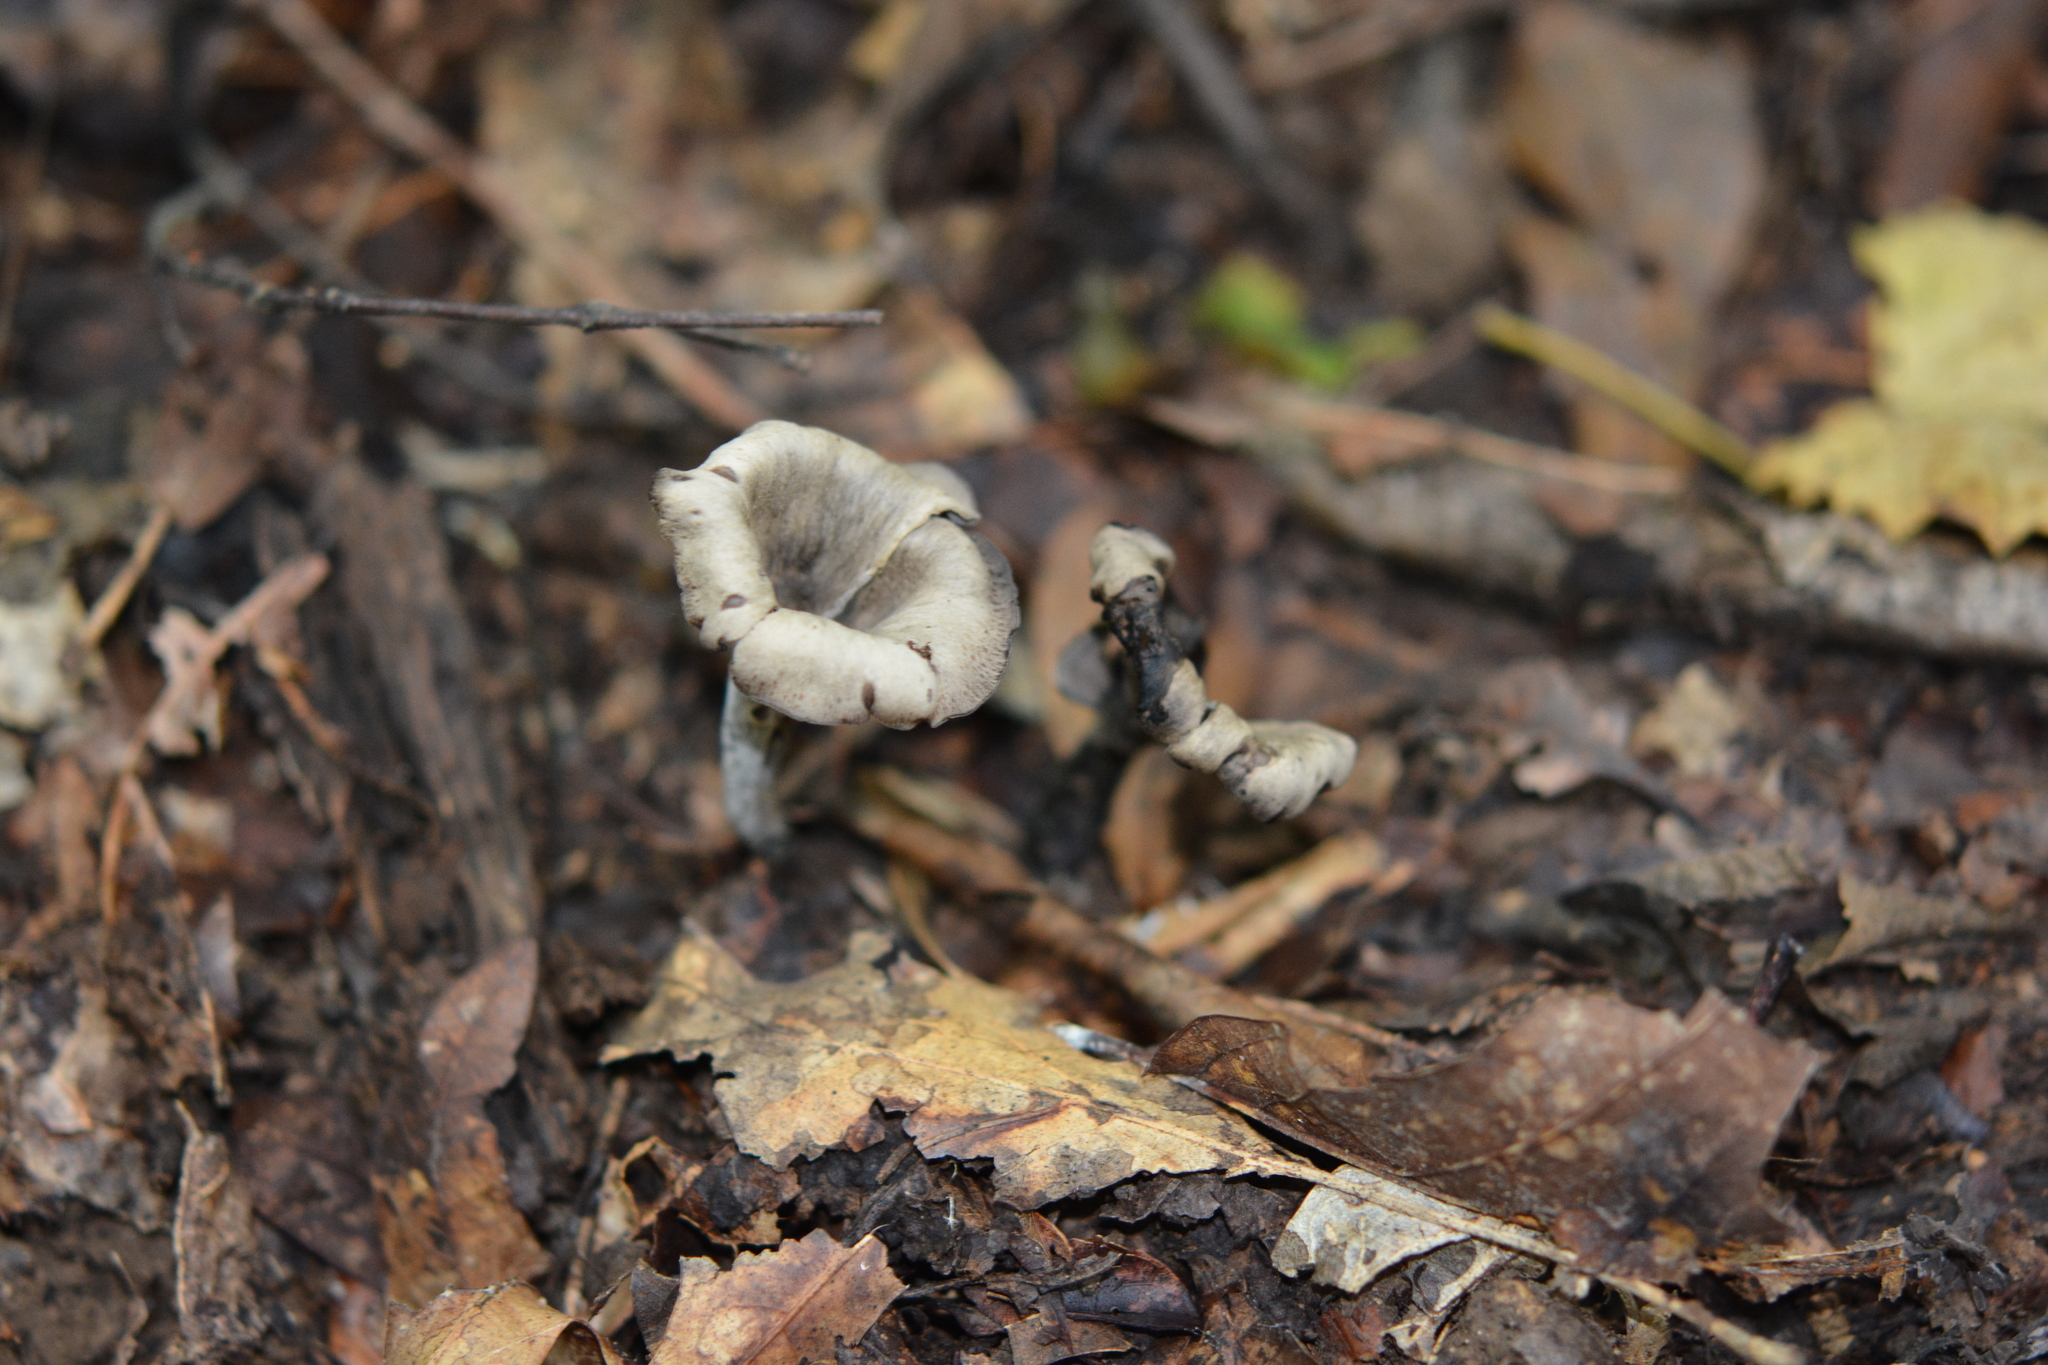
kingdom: Fungi
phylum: Basidiomycota
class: Agaricomycetes
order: Cantharellales
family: Hydnaceae
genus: Craterellus
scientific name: Craterellus cornucopioides
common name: Horn of plenty
